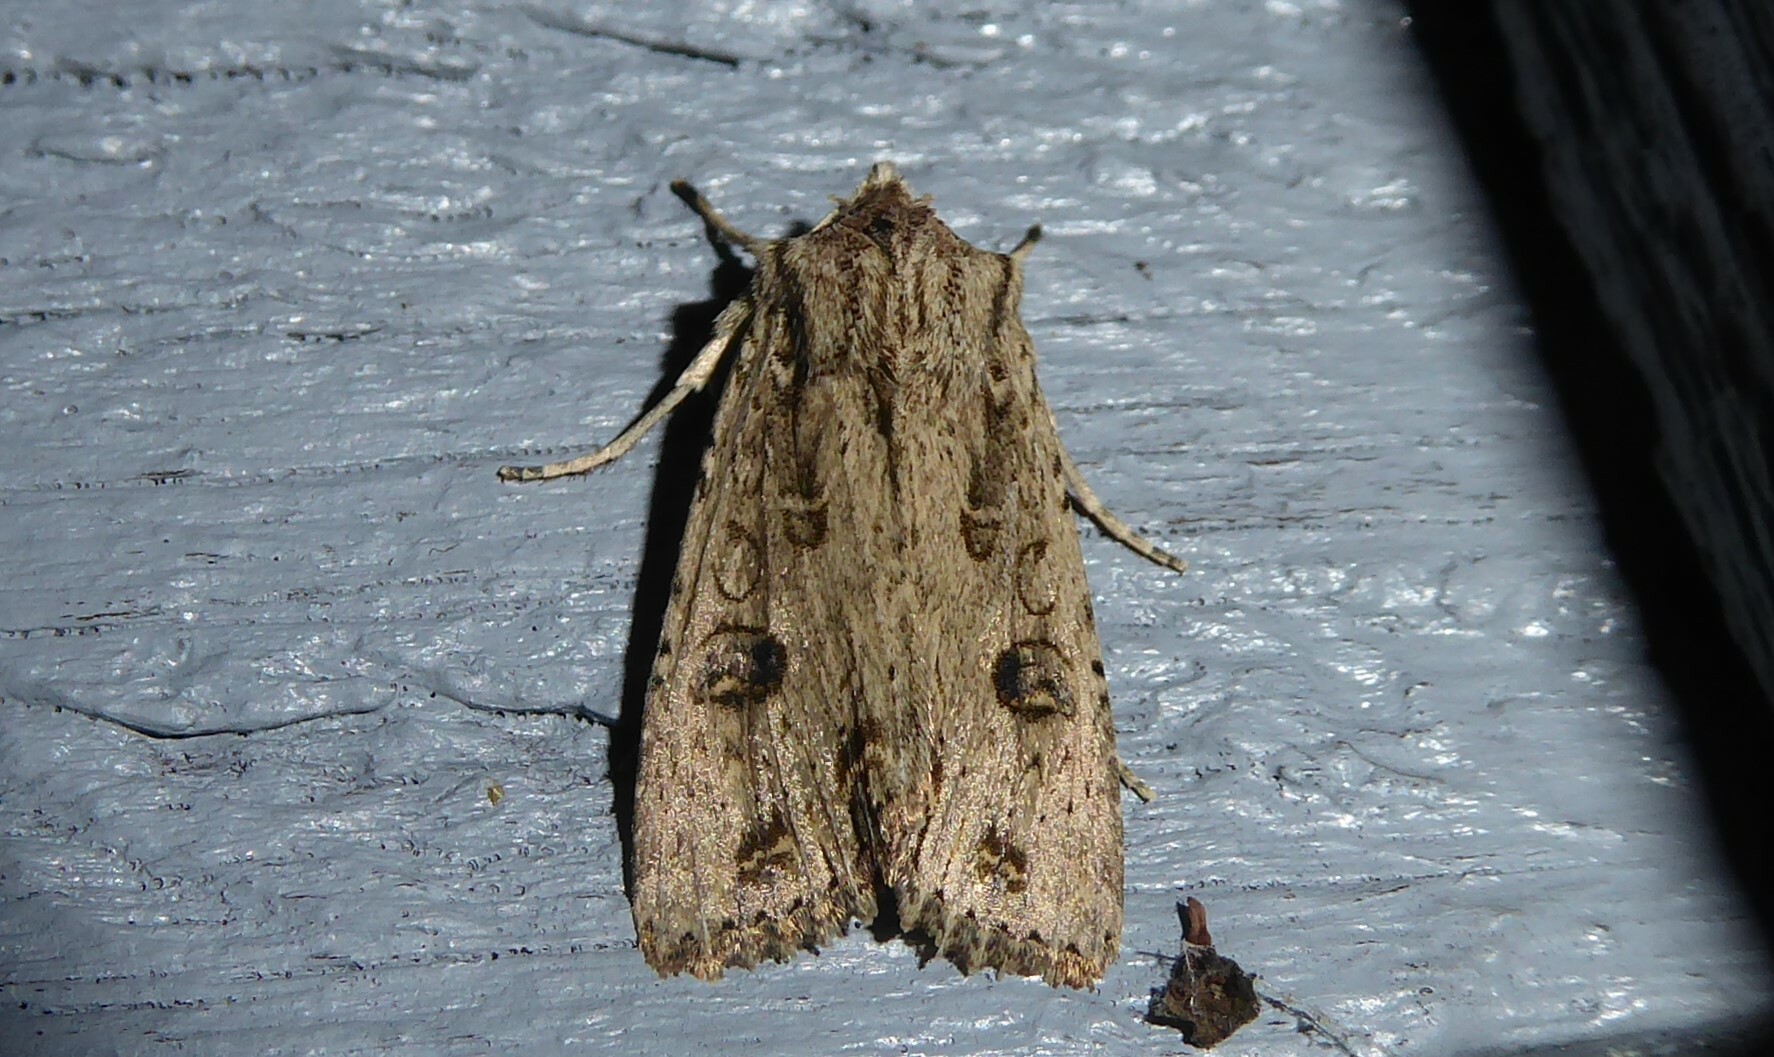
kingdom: Animalia
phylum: Arthropoda
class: Insecta
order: Lepidoptera
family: Noctuidae
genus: Ichneutica
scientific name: Ichneutica lignana
